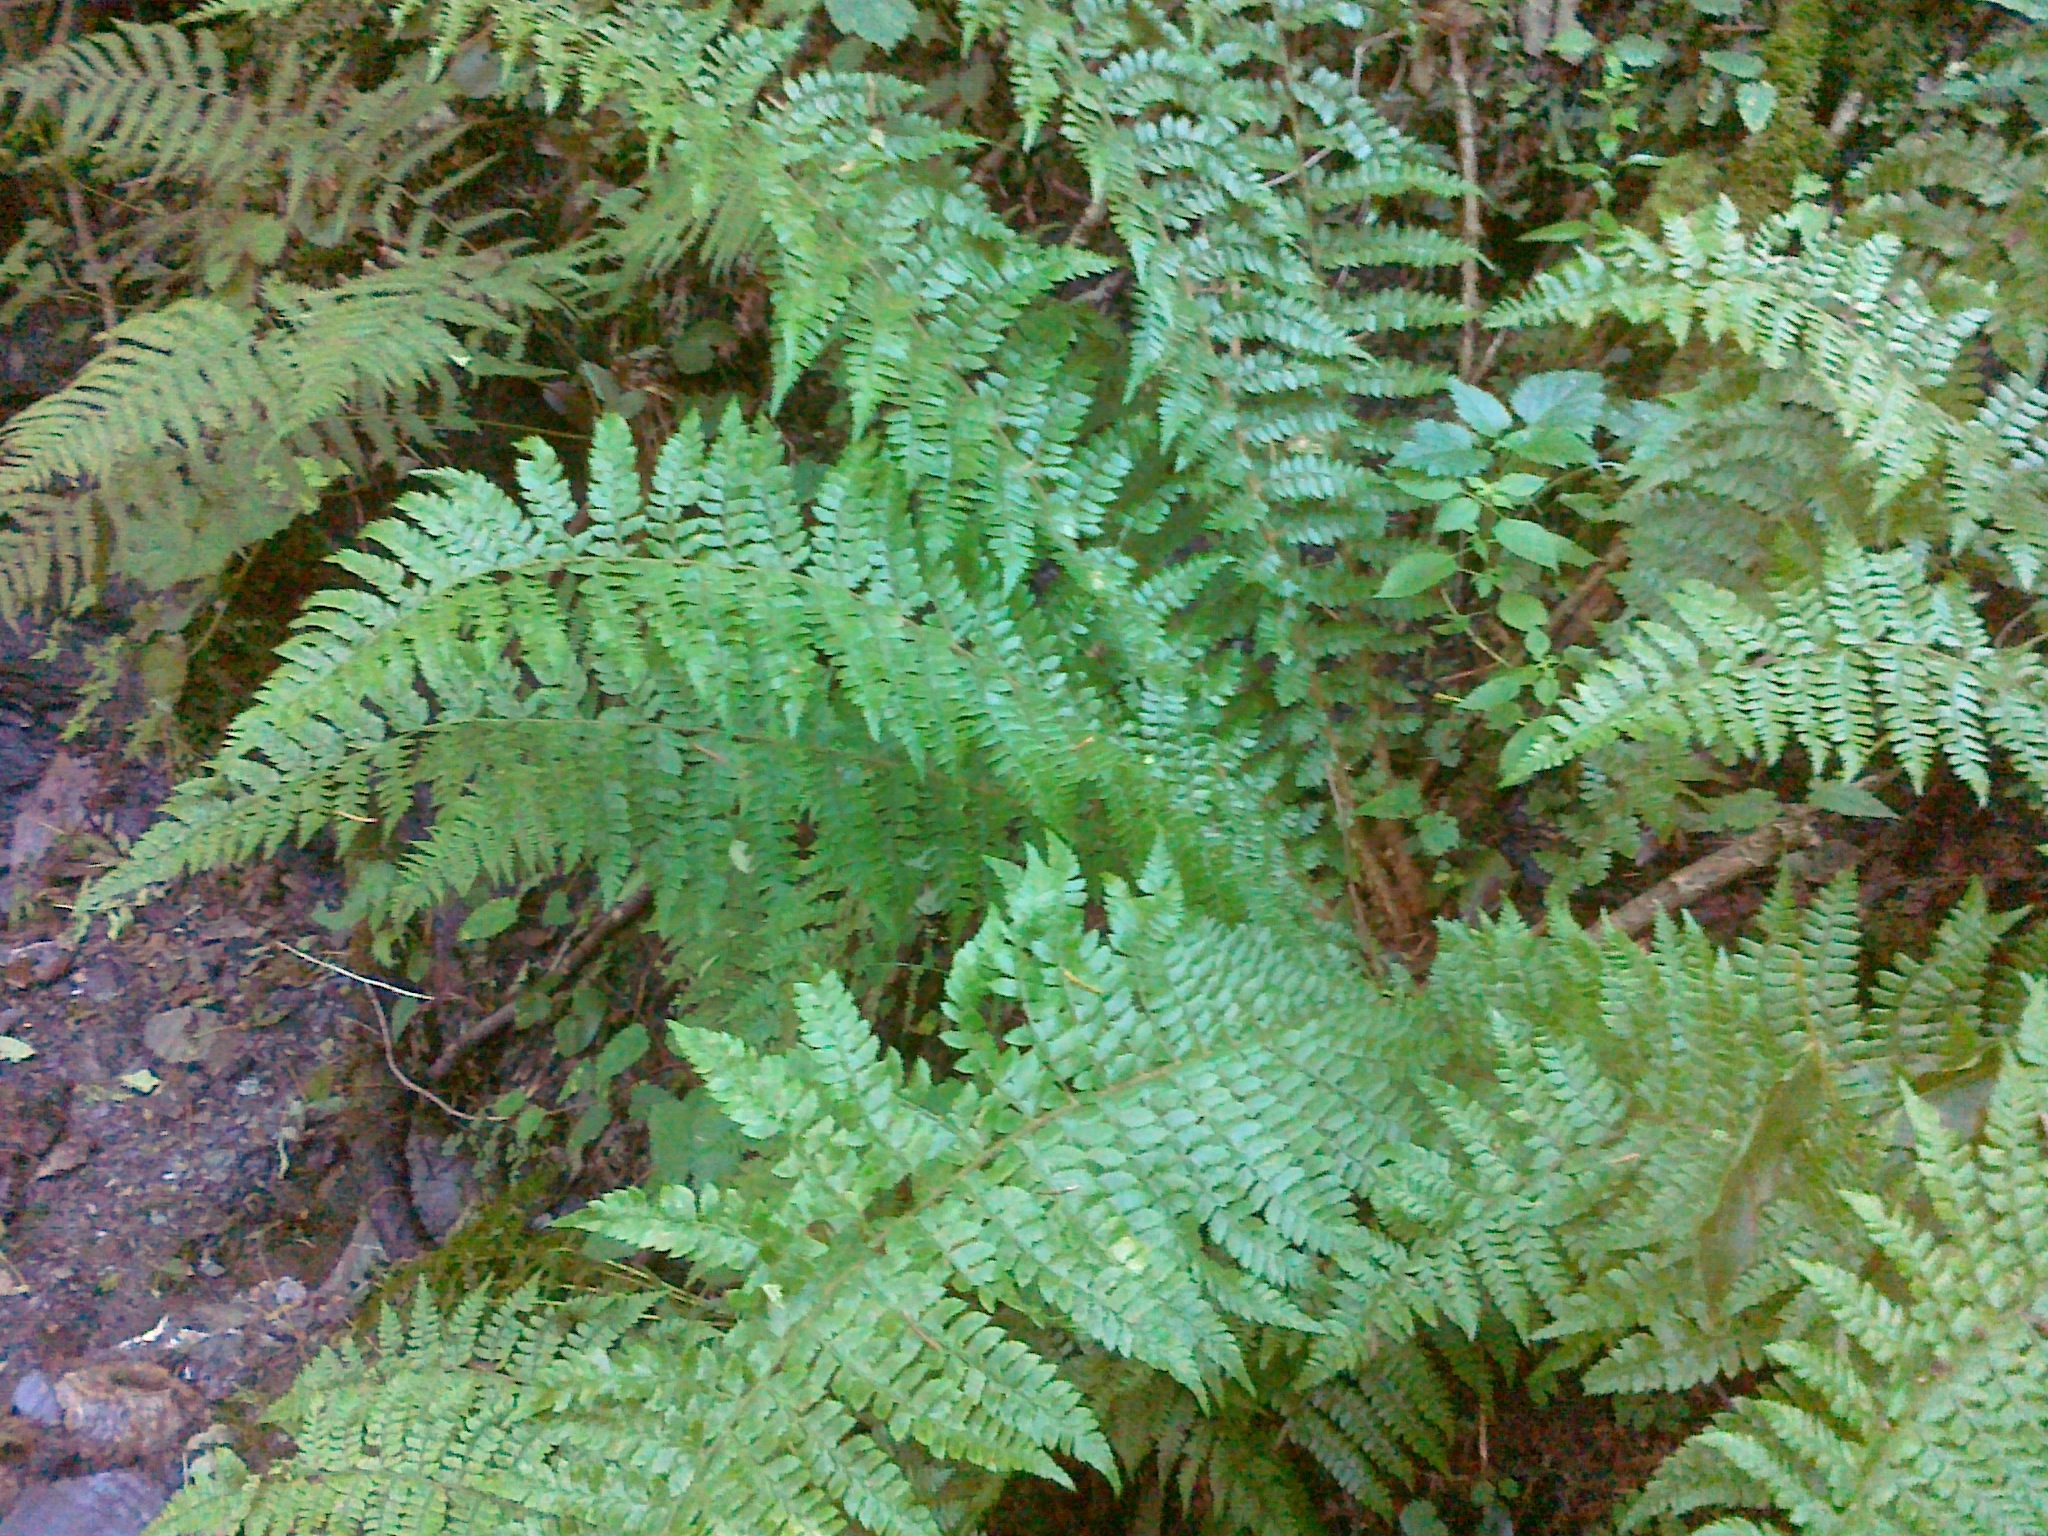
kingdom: Plantae
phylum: Tracheophyta
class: Polypodiopsida
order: Polypodiales
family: Dryopteridaceae
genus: Polystichum
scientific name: Polystichum braunii
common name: Braun's holly fern
